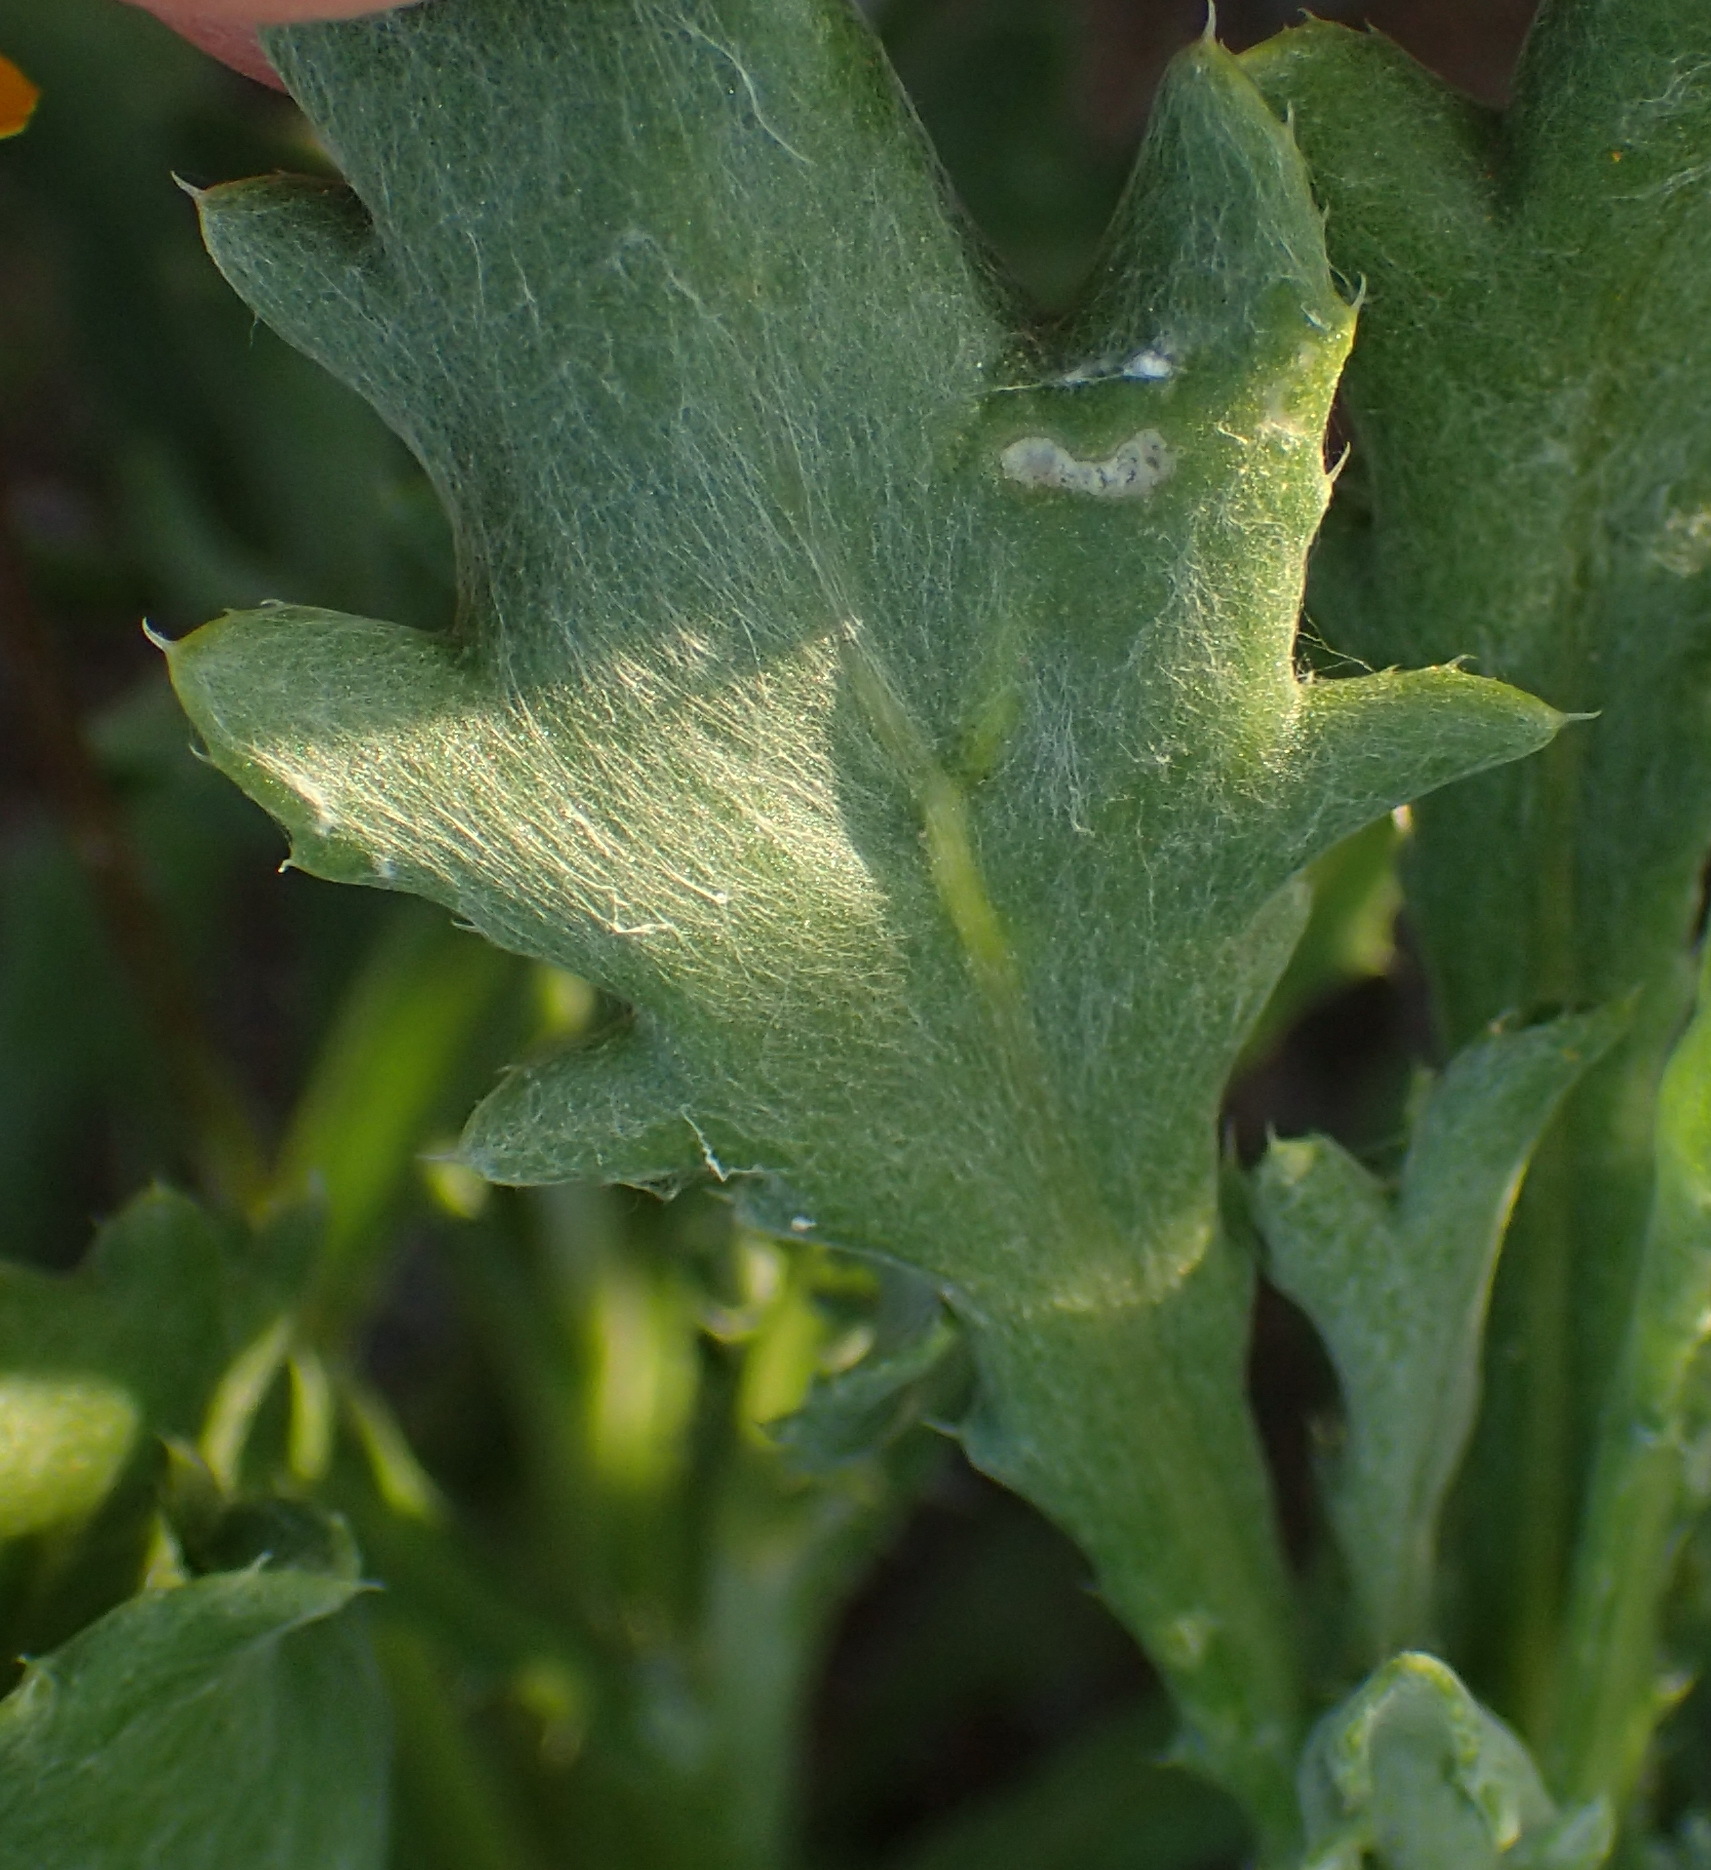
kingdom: Plantae
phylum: Tracheophyta
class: Magnoliopsida
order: Asterales
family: Asteraceae
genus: Gazania
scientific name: Gazania lichtensteinii
